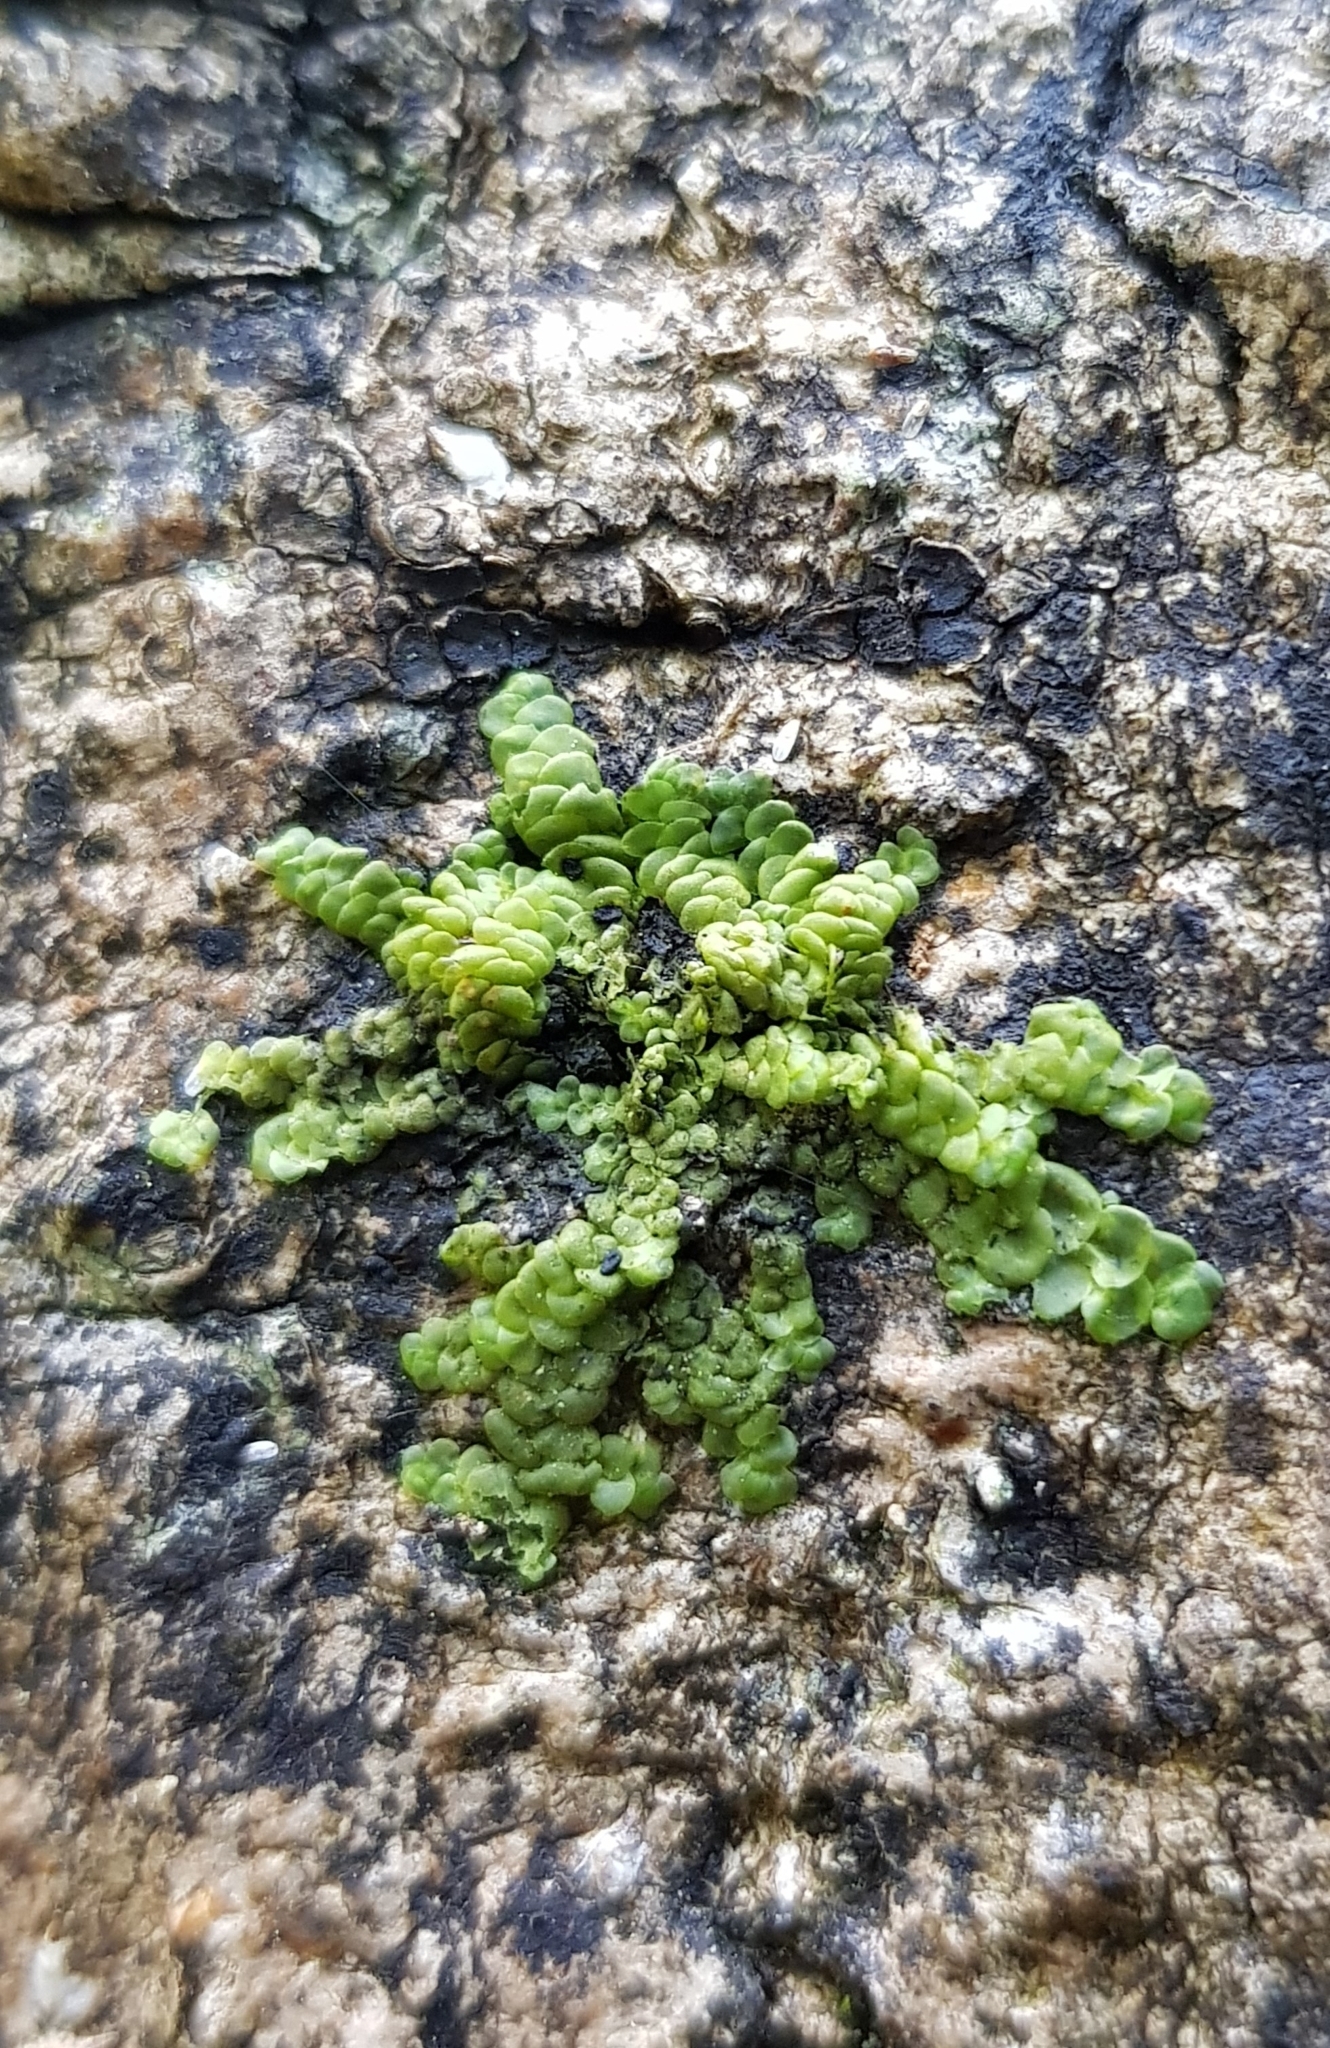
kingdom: Plantae
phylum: Marchantiophyta
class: Jungermanniopsida
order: Porellales
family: Radulaceae
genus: Radula
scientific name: Radula complanata
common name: Flat-leaved scalewort
